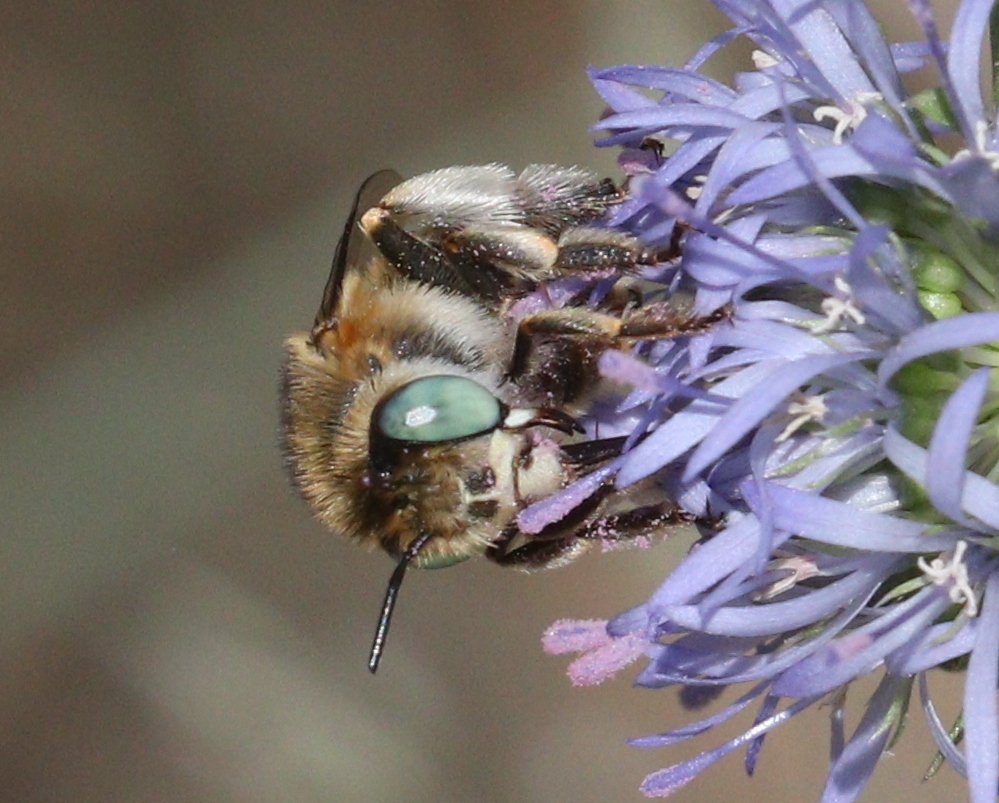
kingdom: Animalia
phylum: Arthropoda
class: Insecta
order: Hymenoptera
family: Apidae
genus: Anthophora
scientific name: Anthophora bimaculata
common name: Green-eyed flower bee
